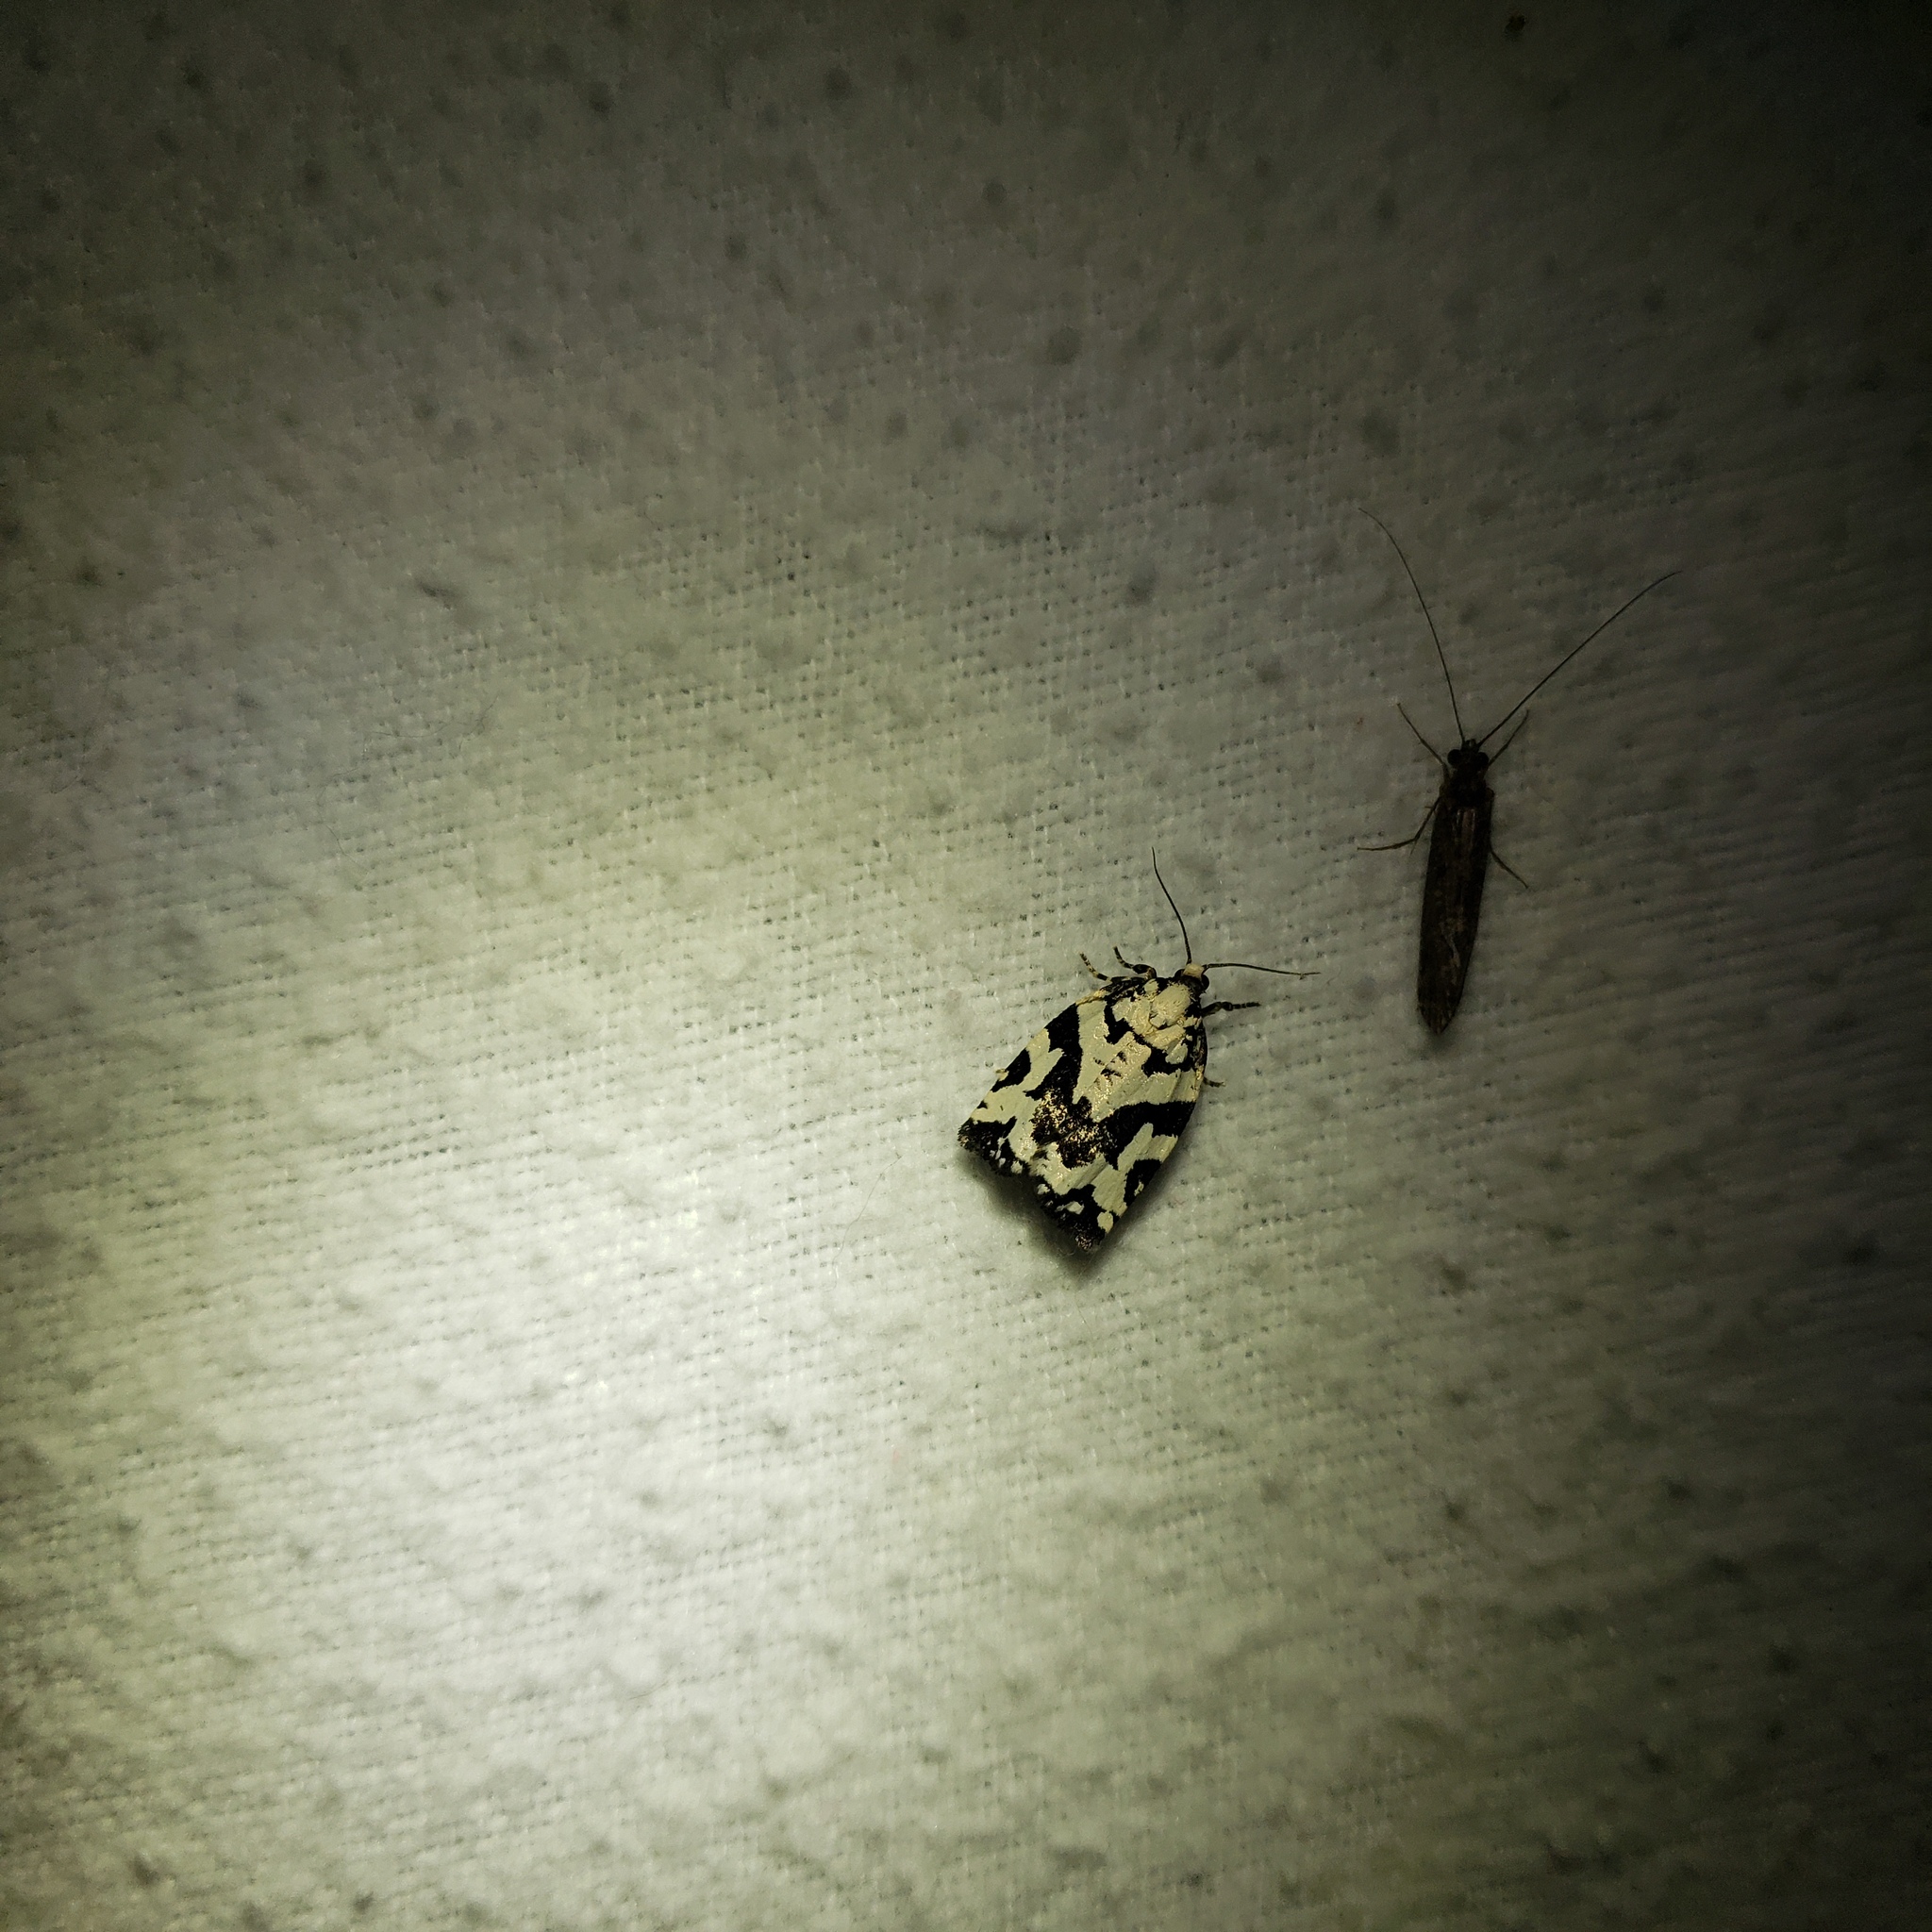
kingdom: Animalia
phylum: Arthropoda
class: Insecta
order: Lepidoptera
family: Tortricidae
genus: Archips
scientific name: Archips dissitana
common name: Boldly-marked archips moth
